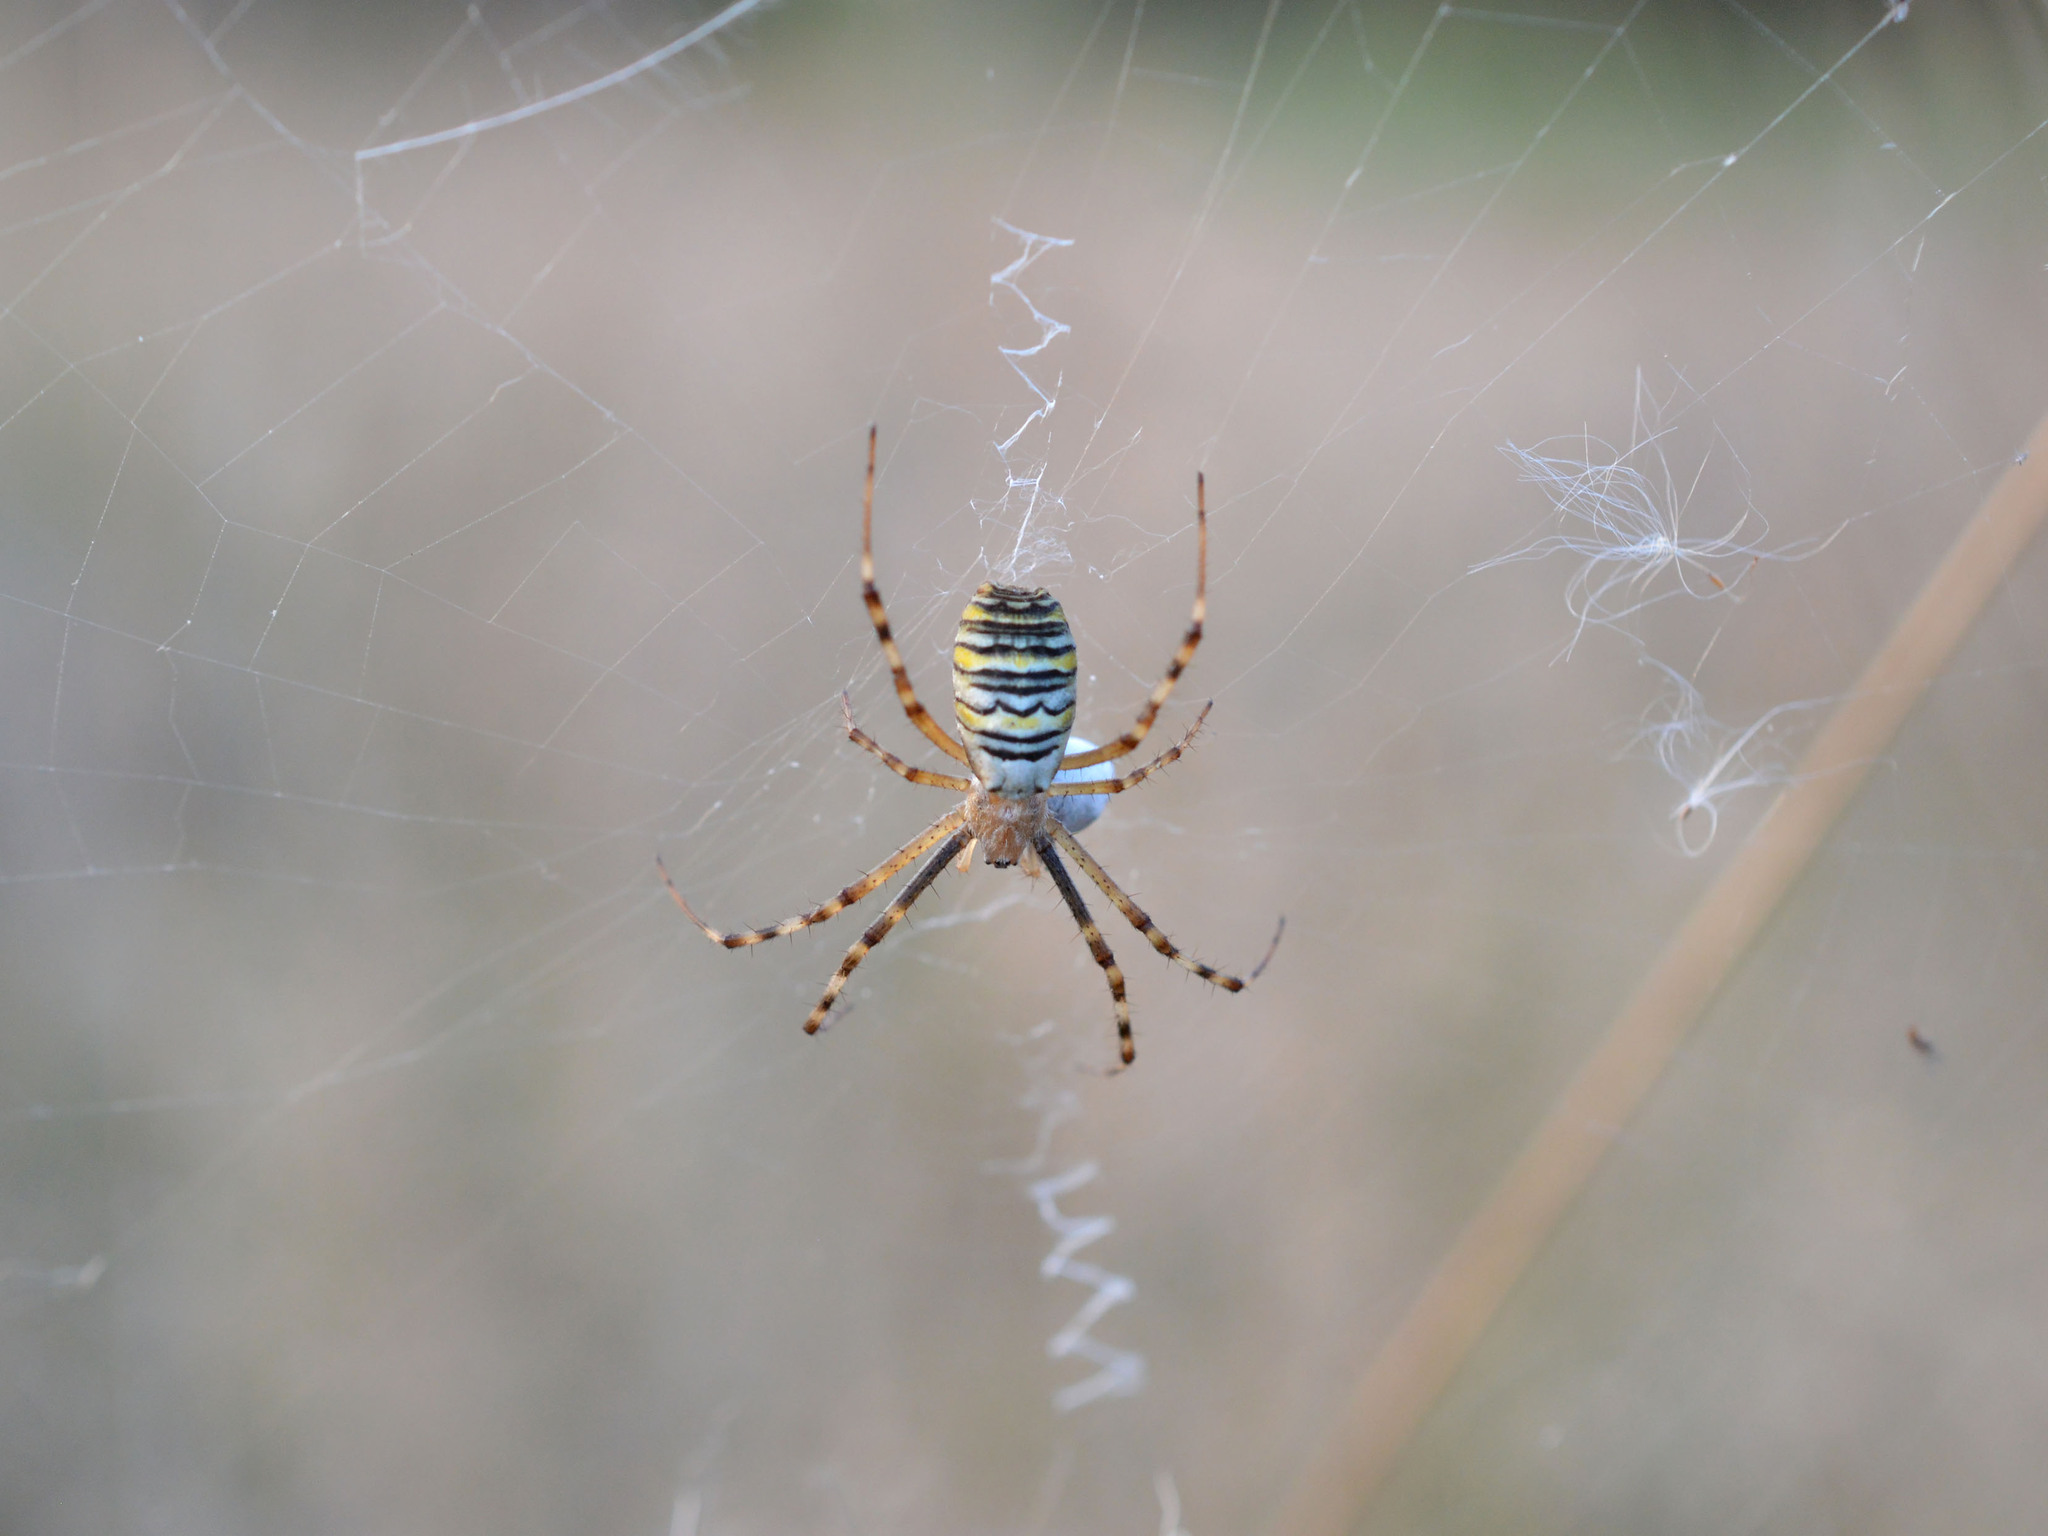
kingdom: Animalia
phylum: Arthropoda
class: Arachnida
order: Araneae
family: Araneidae
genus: Argiope
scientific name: Argiope bruennichi
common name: Wasp spider
